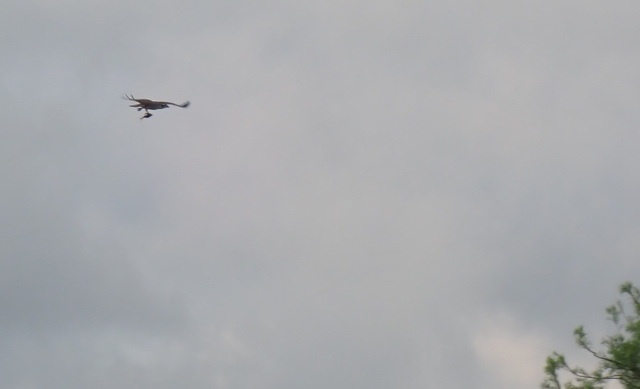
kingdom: Animalia
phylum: Chordata
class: Aves
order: Accipitriformes
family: Pandionidae
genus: Pandion
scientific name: Pandion haliaetus
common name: Osprey
